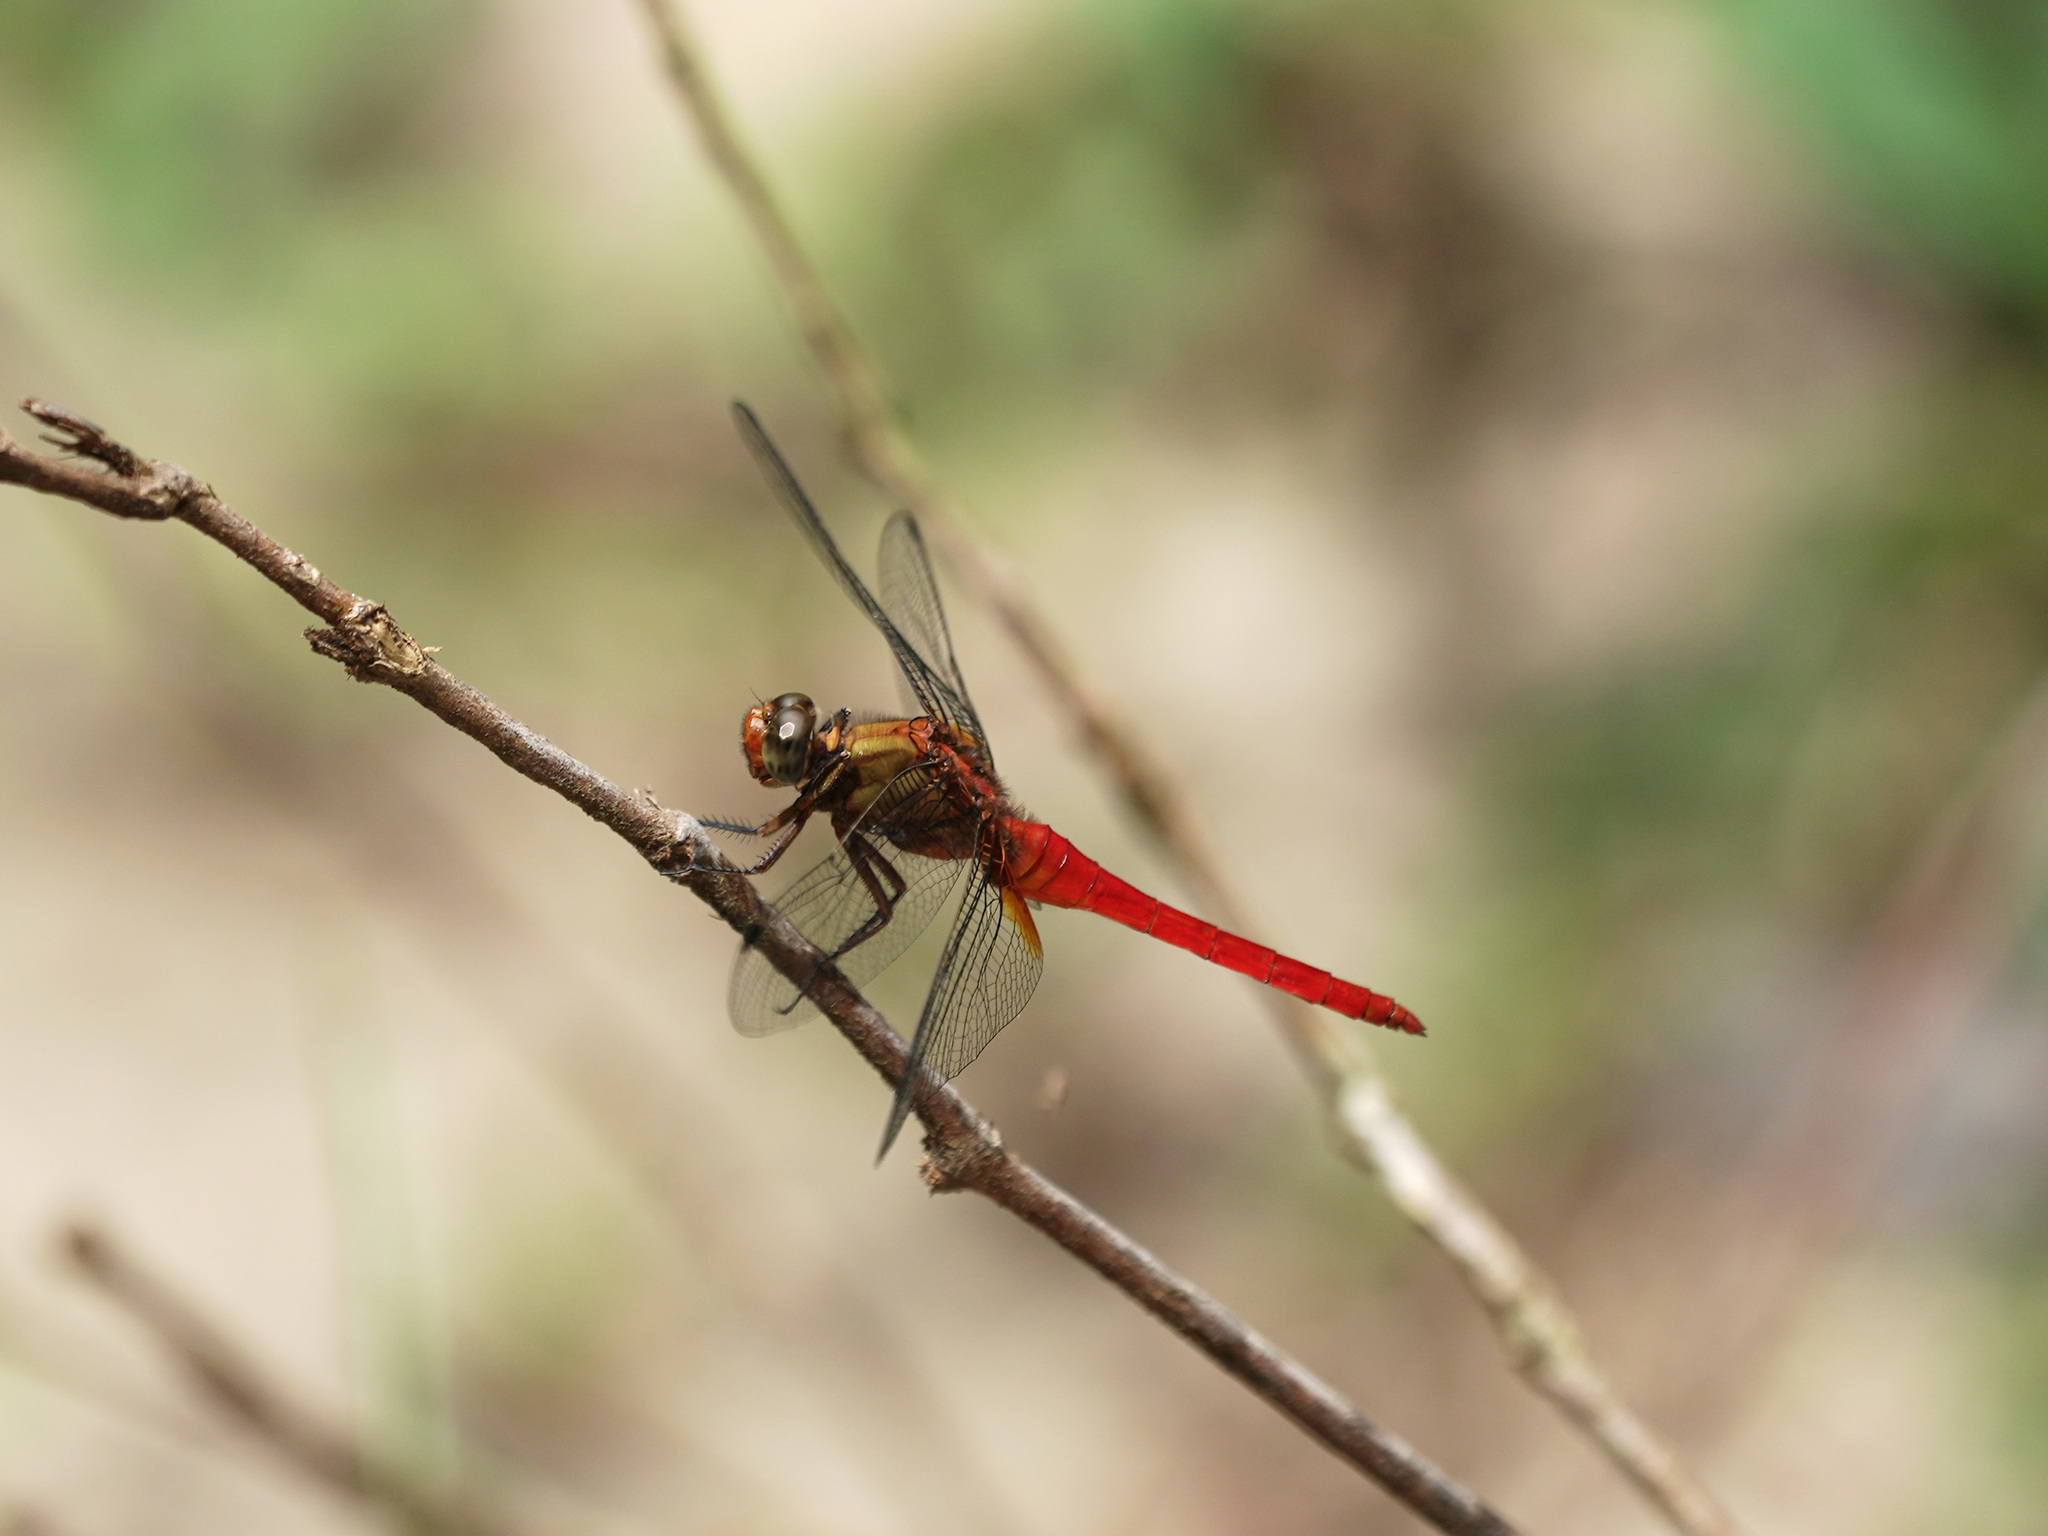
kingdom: Animalia
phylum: Arthropoda
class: Insecta
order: Odonata
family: Libellulidae
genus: Orthetrum
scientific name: Orthetrum testaceum
